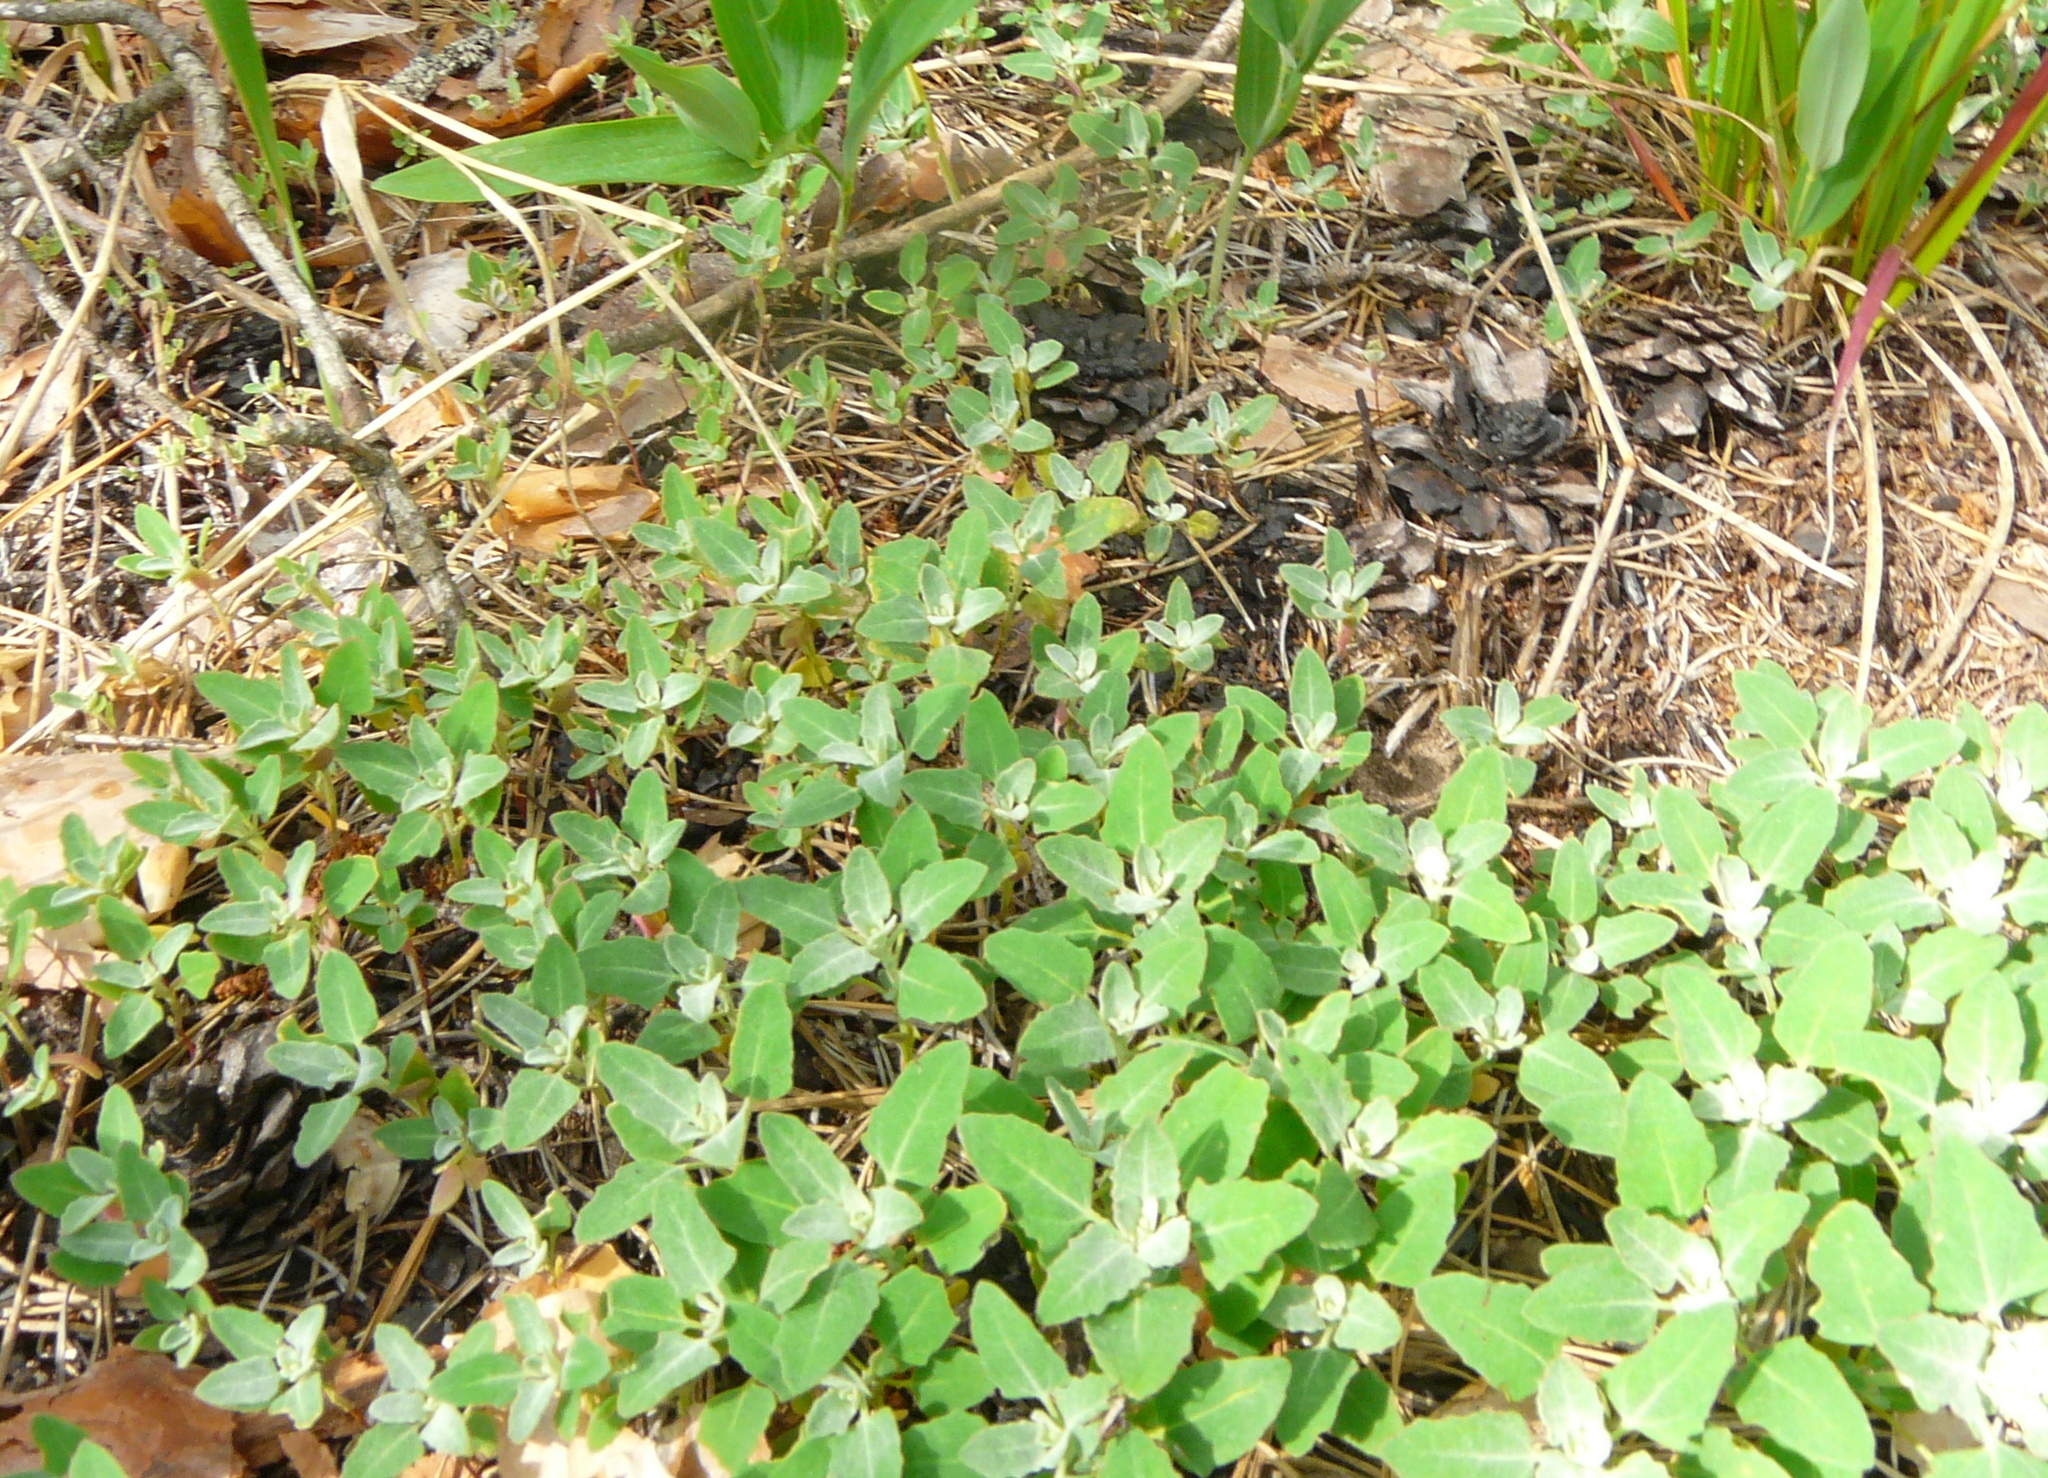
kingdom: Plantae
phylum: Tracheophyta
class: Magnoliopsida
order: Caryophyllales
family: Amaranthaceae
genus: Chenopodium
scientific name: Chenopodium album
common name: Fat-hen
